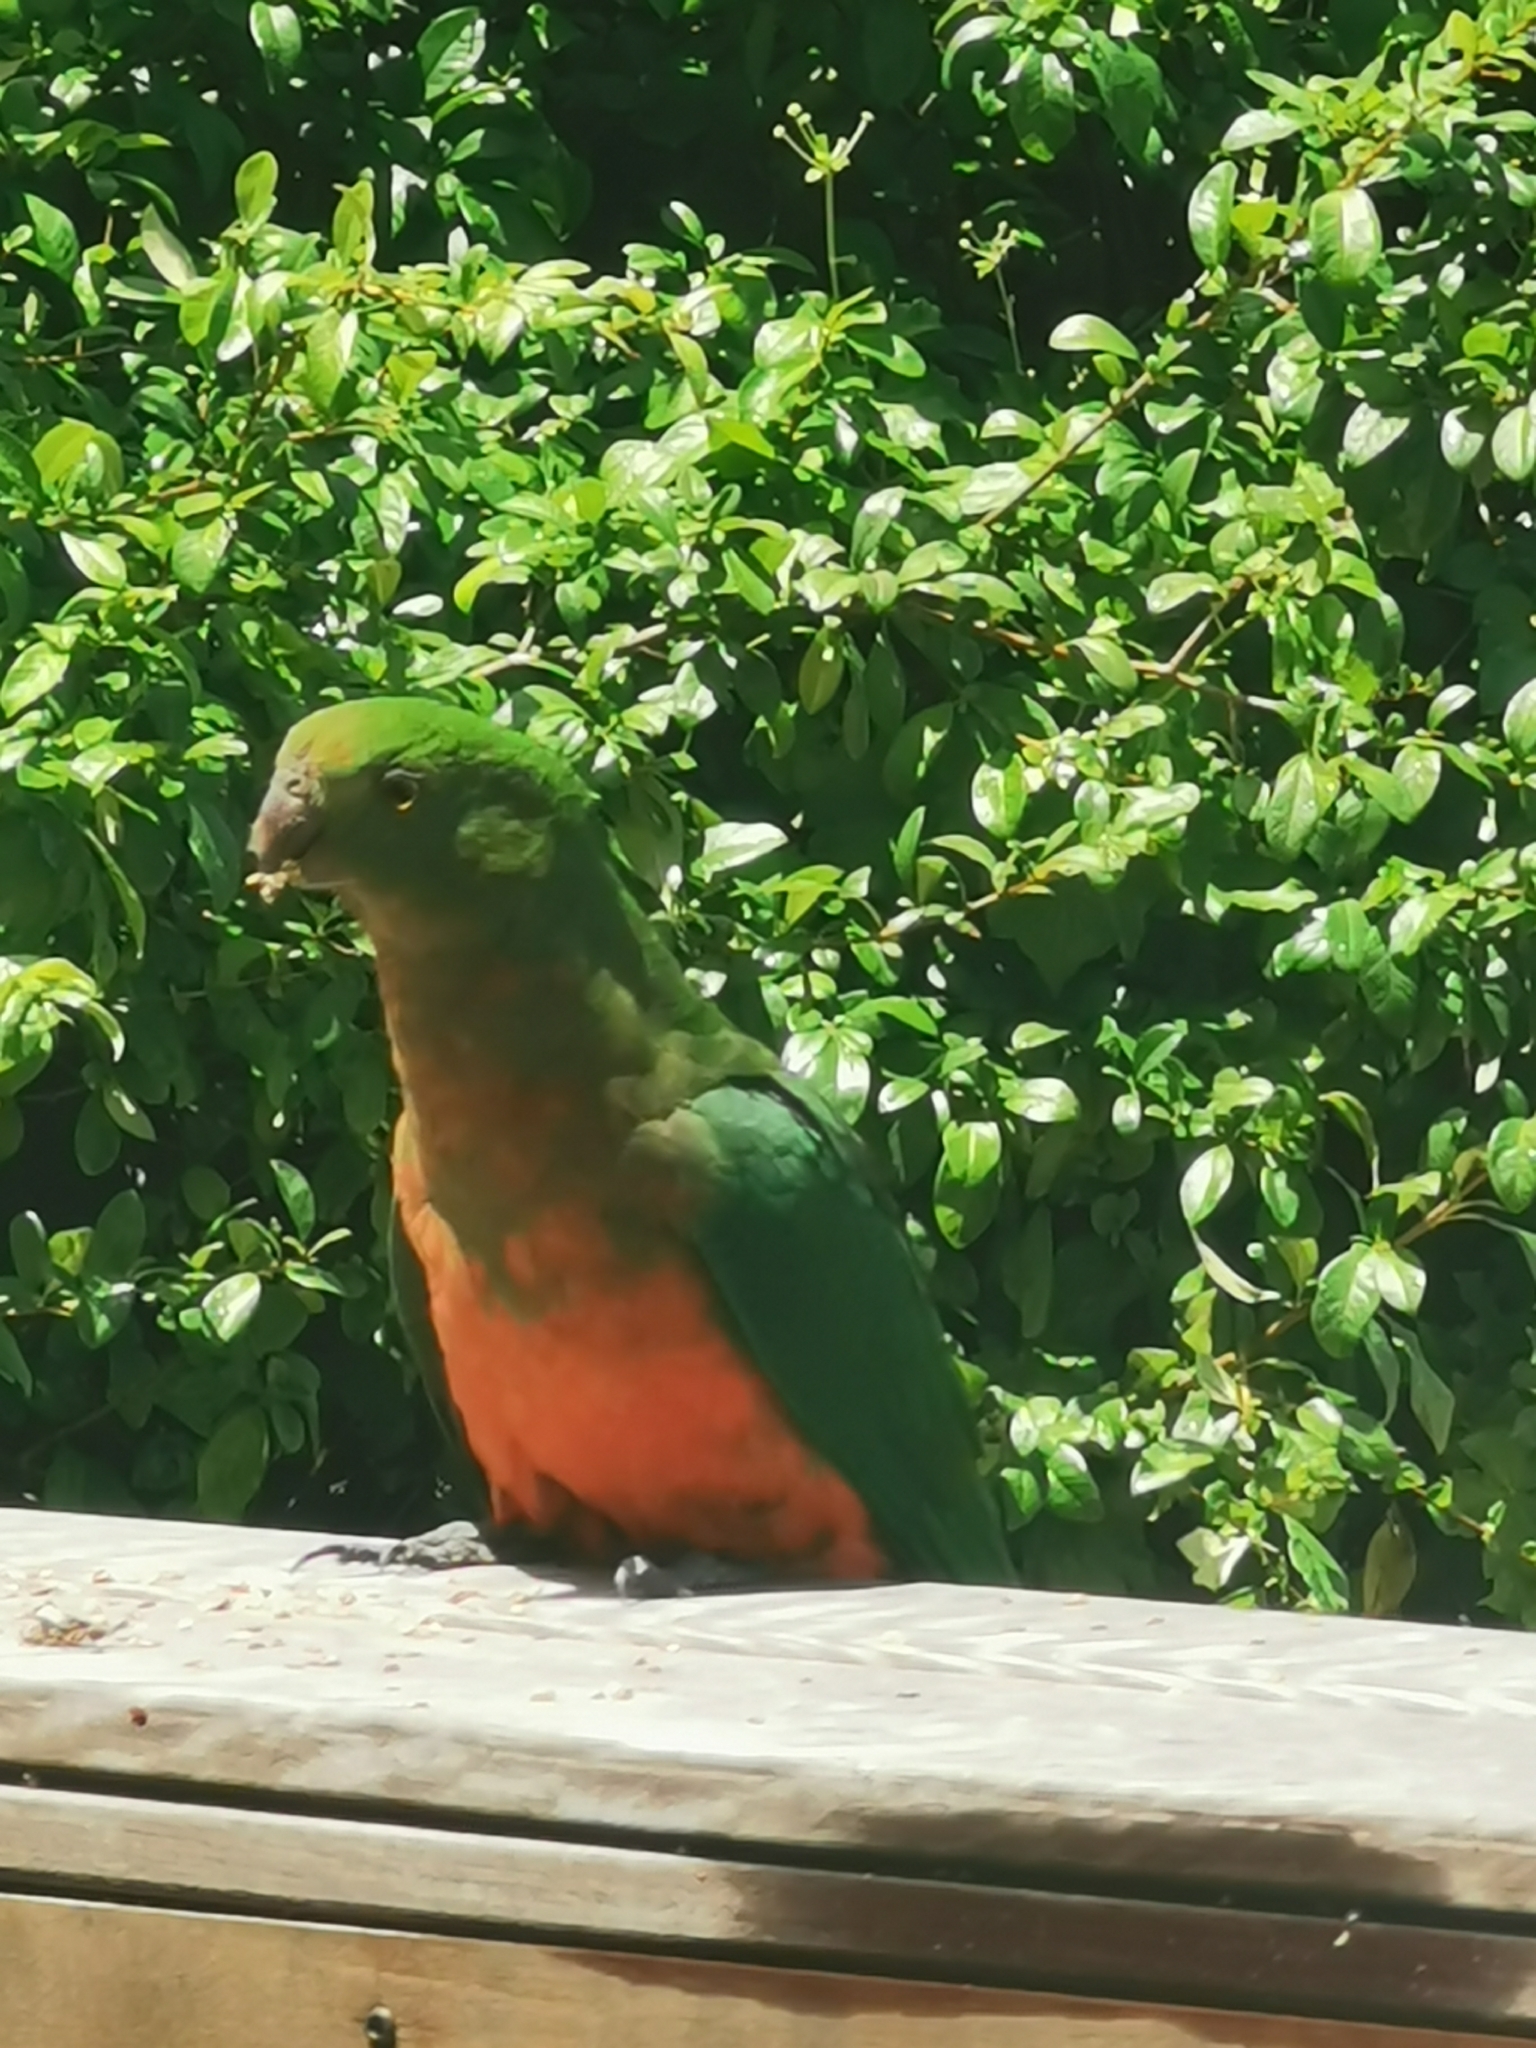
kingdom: Animalia
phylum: Chordata
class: Aves
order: Psittaciformes
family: Psittacidae
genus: Alisterus
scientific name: Alisterus scapularis
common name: Australian king parrot
